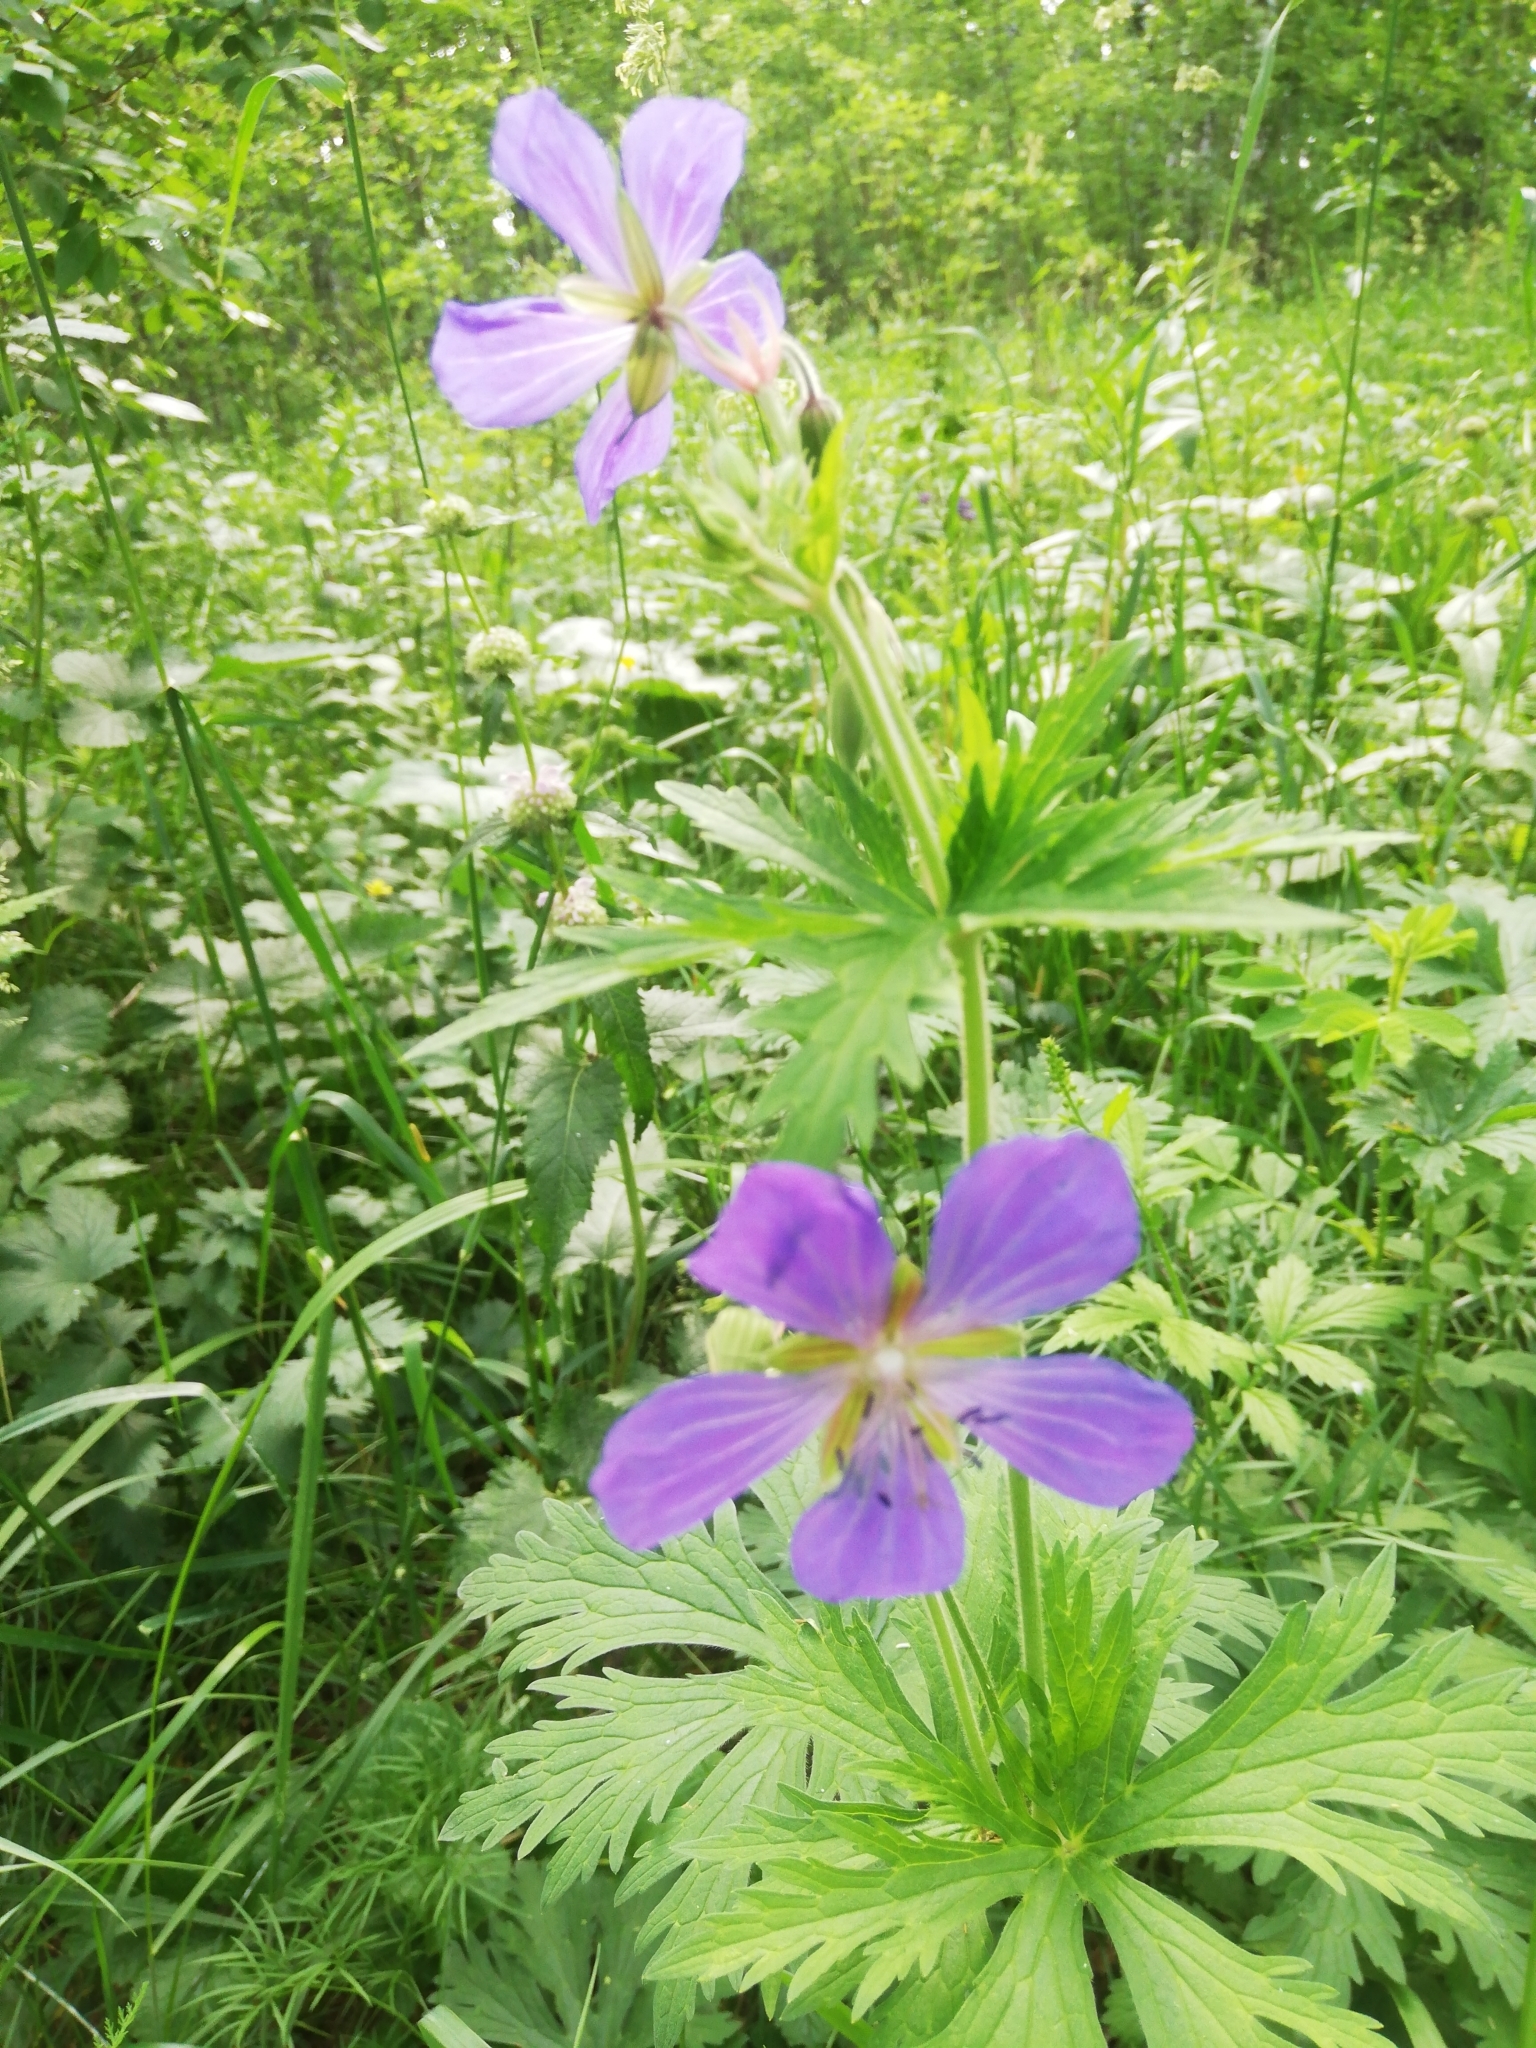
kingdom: Plantae
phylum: Tracheophyta
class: Magnoliopsida
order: Geraniales
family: Geraniaceae
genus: Geranium
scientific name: Geranium pratense
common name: Meadow crane's-bill
